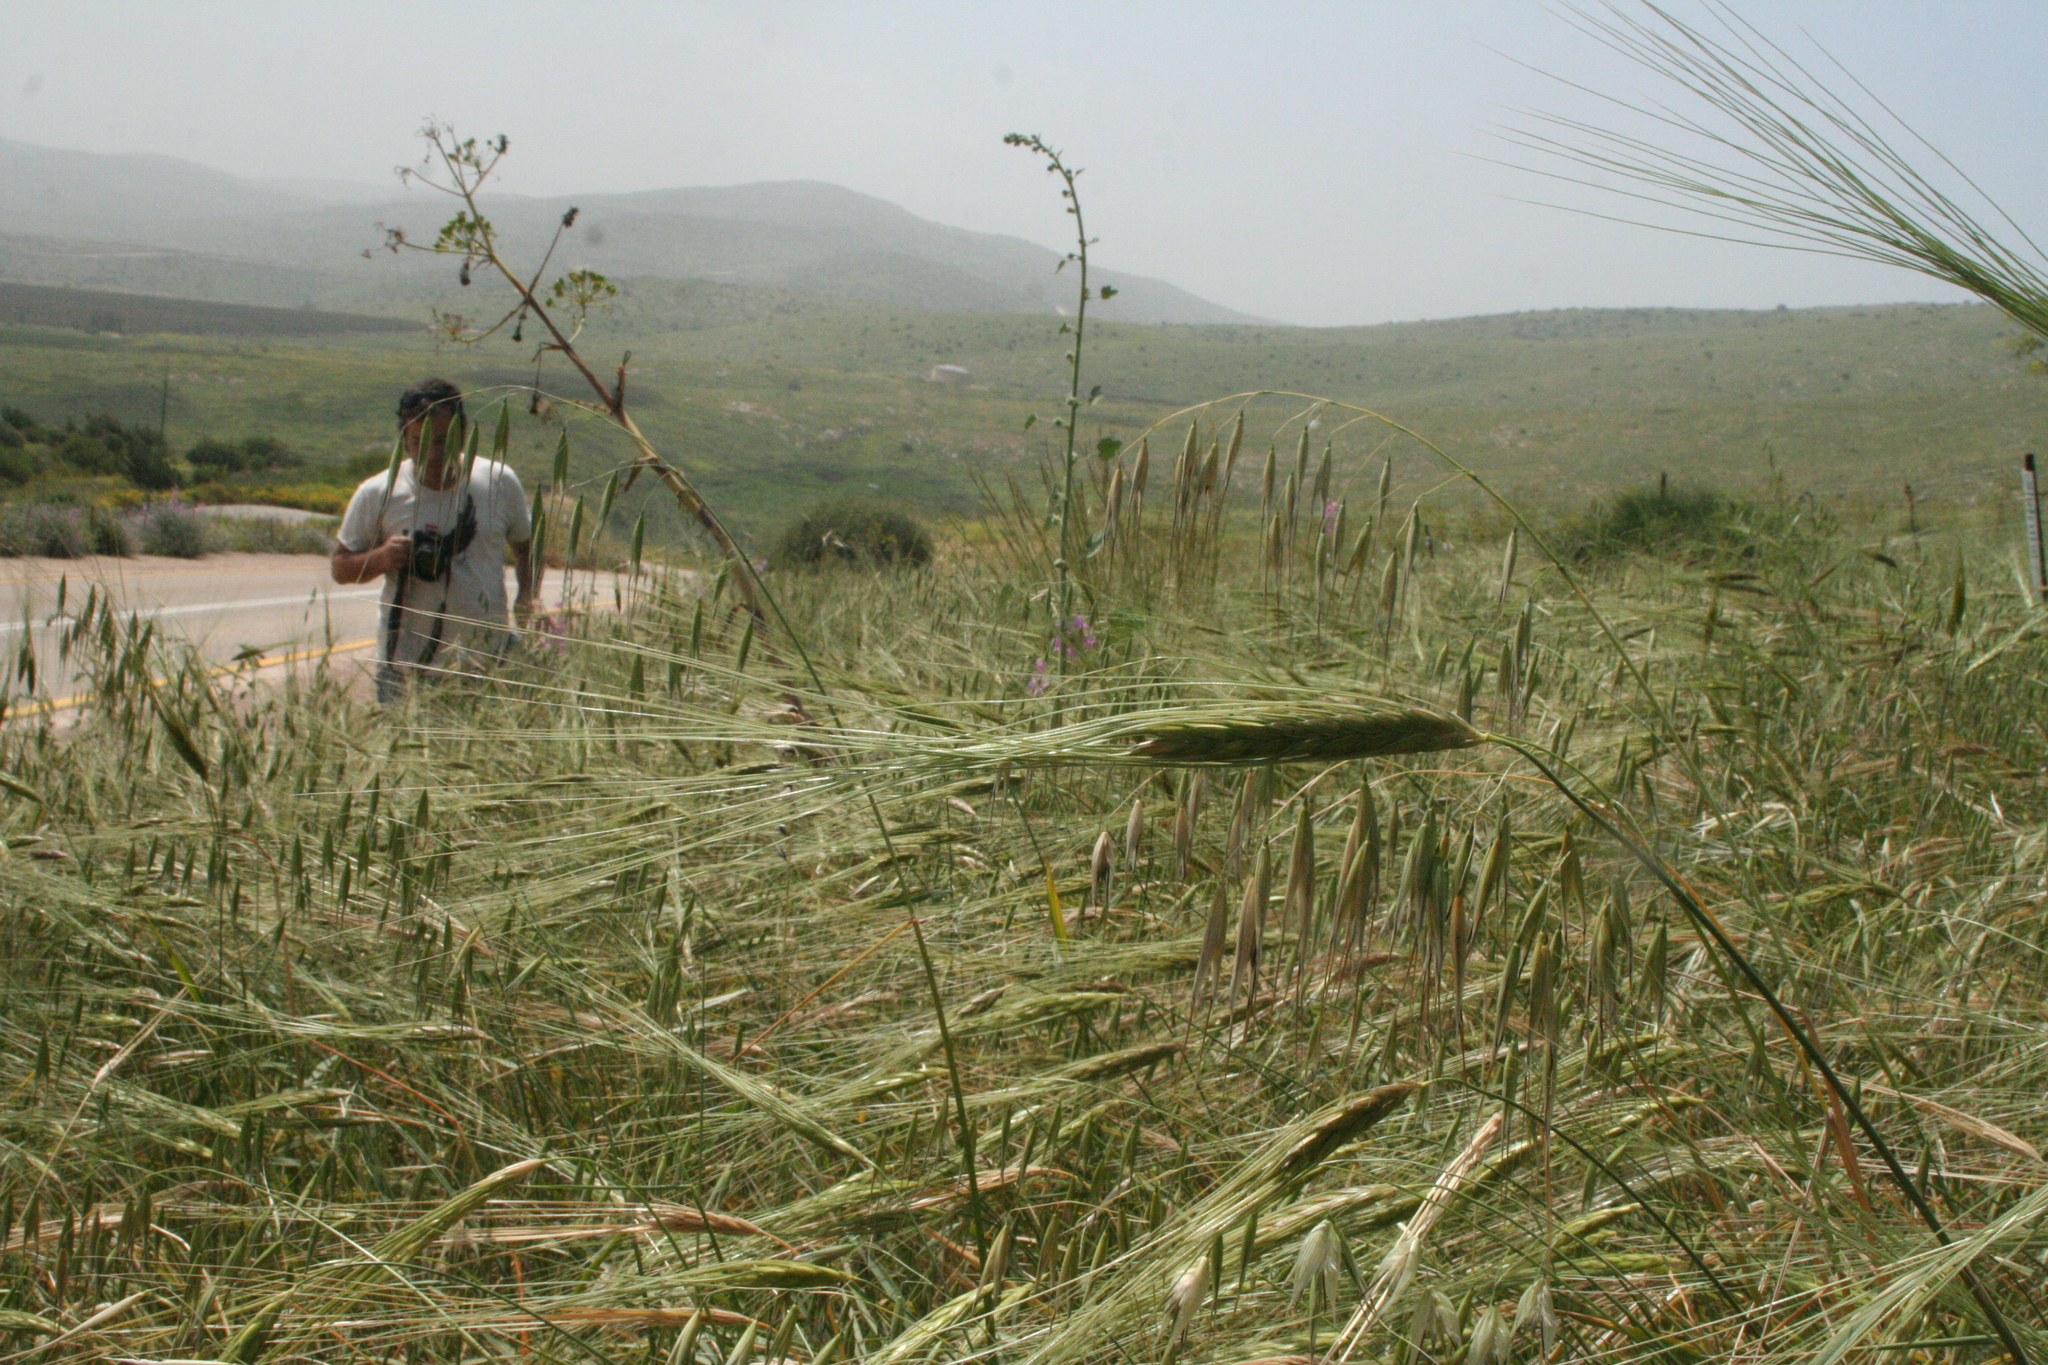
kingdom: Plantae
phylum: Tracheophyta
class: Liliopsida
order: Poales
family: Poaceae
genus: Triticum
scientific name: Triticum dicoccoides
